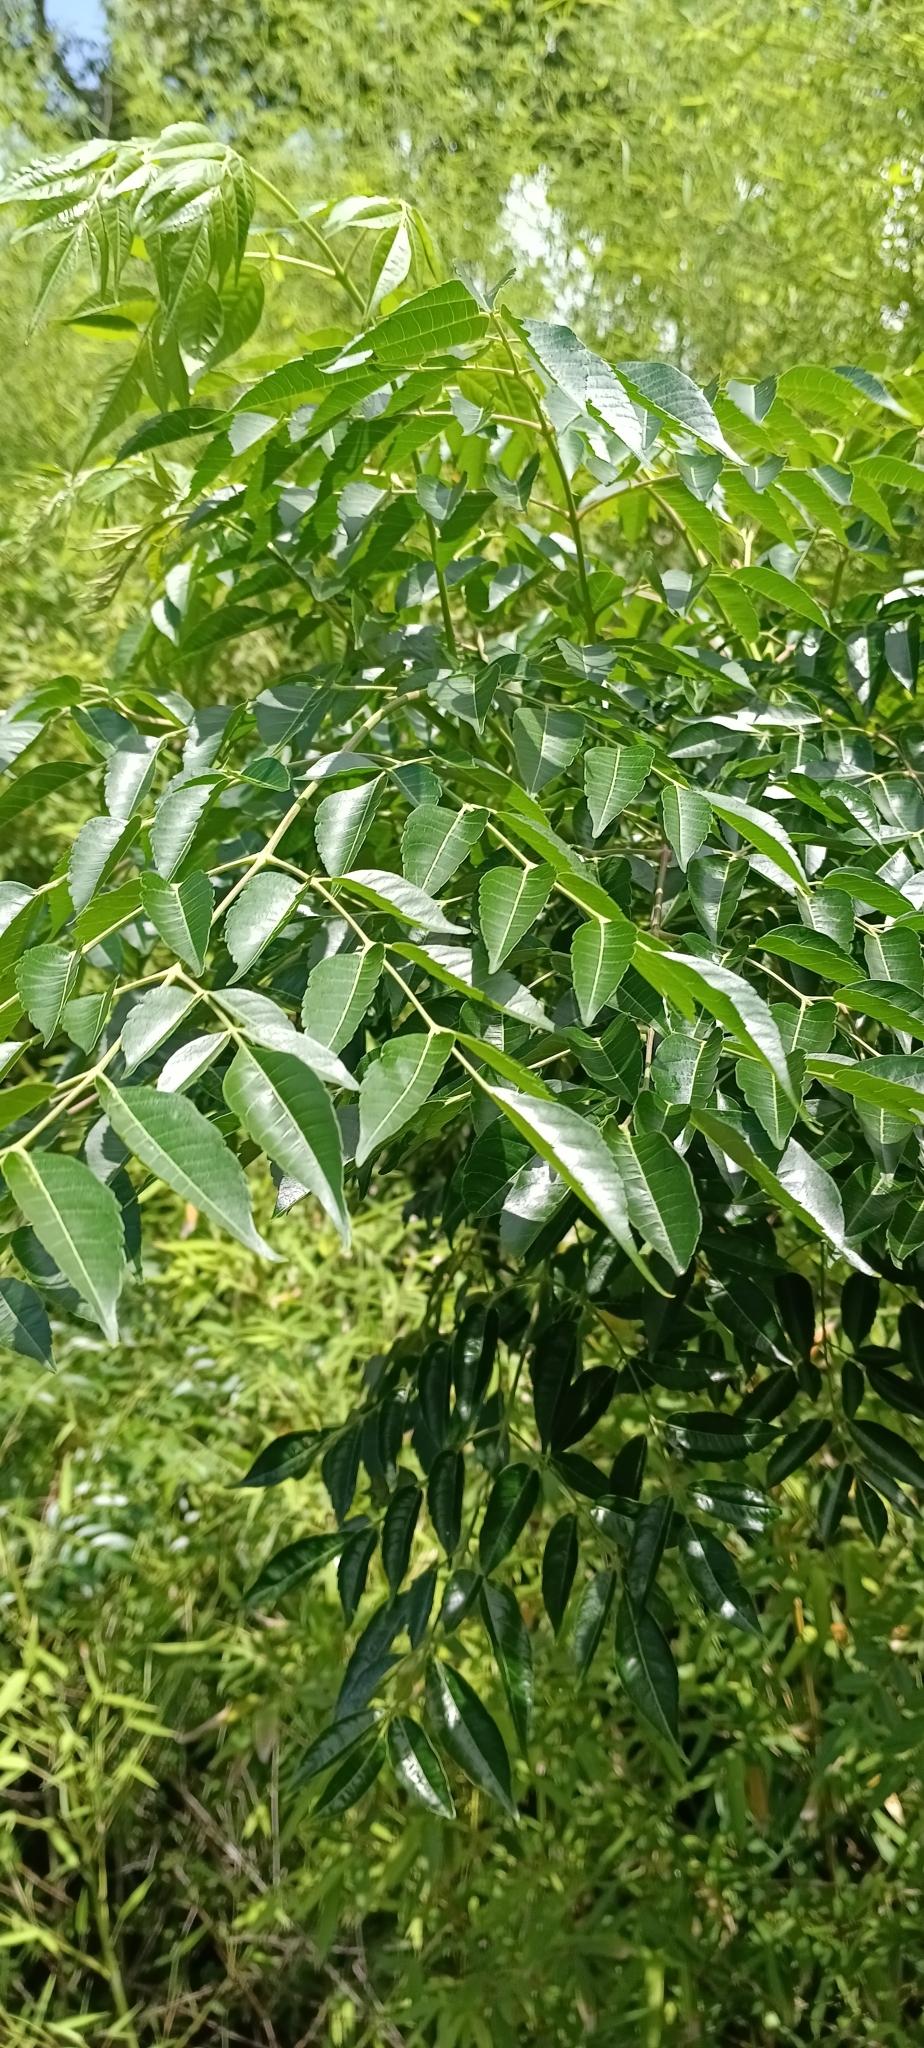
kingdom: Plantae
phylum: Tracheophyta
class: Magnoliopsida
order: Sapindales
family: Meliaceae
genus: Melia
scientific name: Melia azedarach
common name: Chinaberrytree
